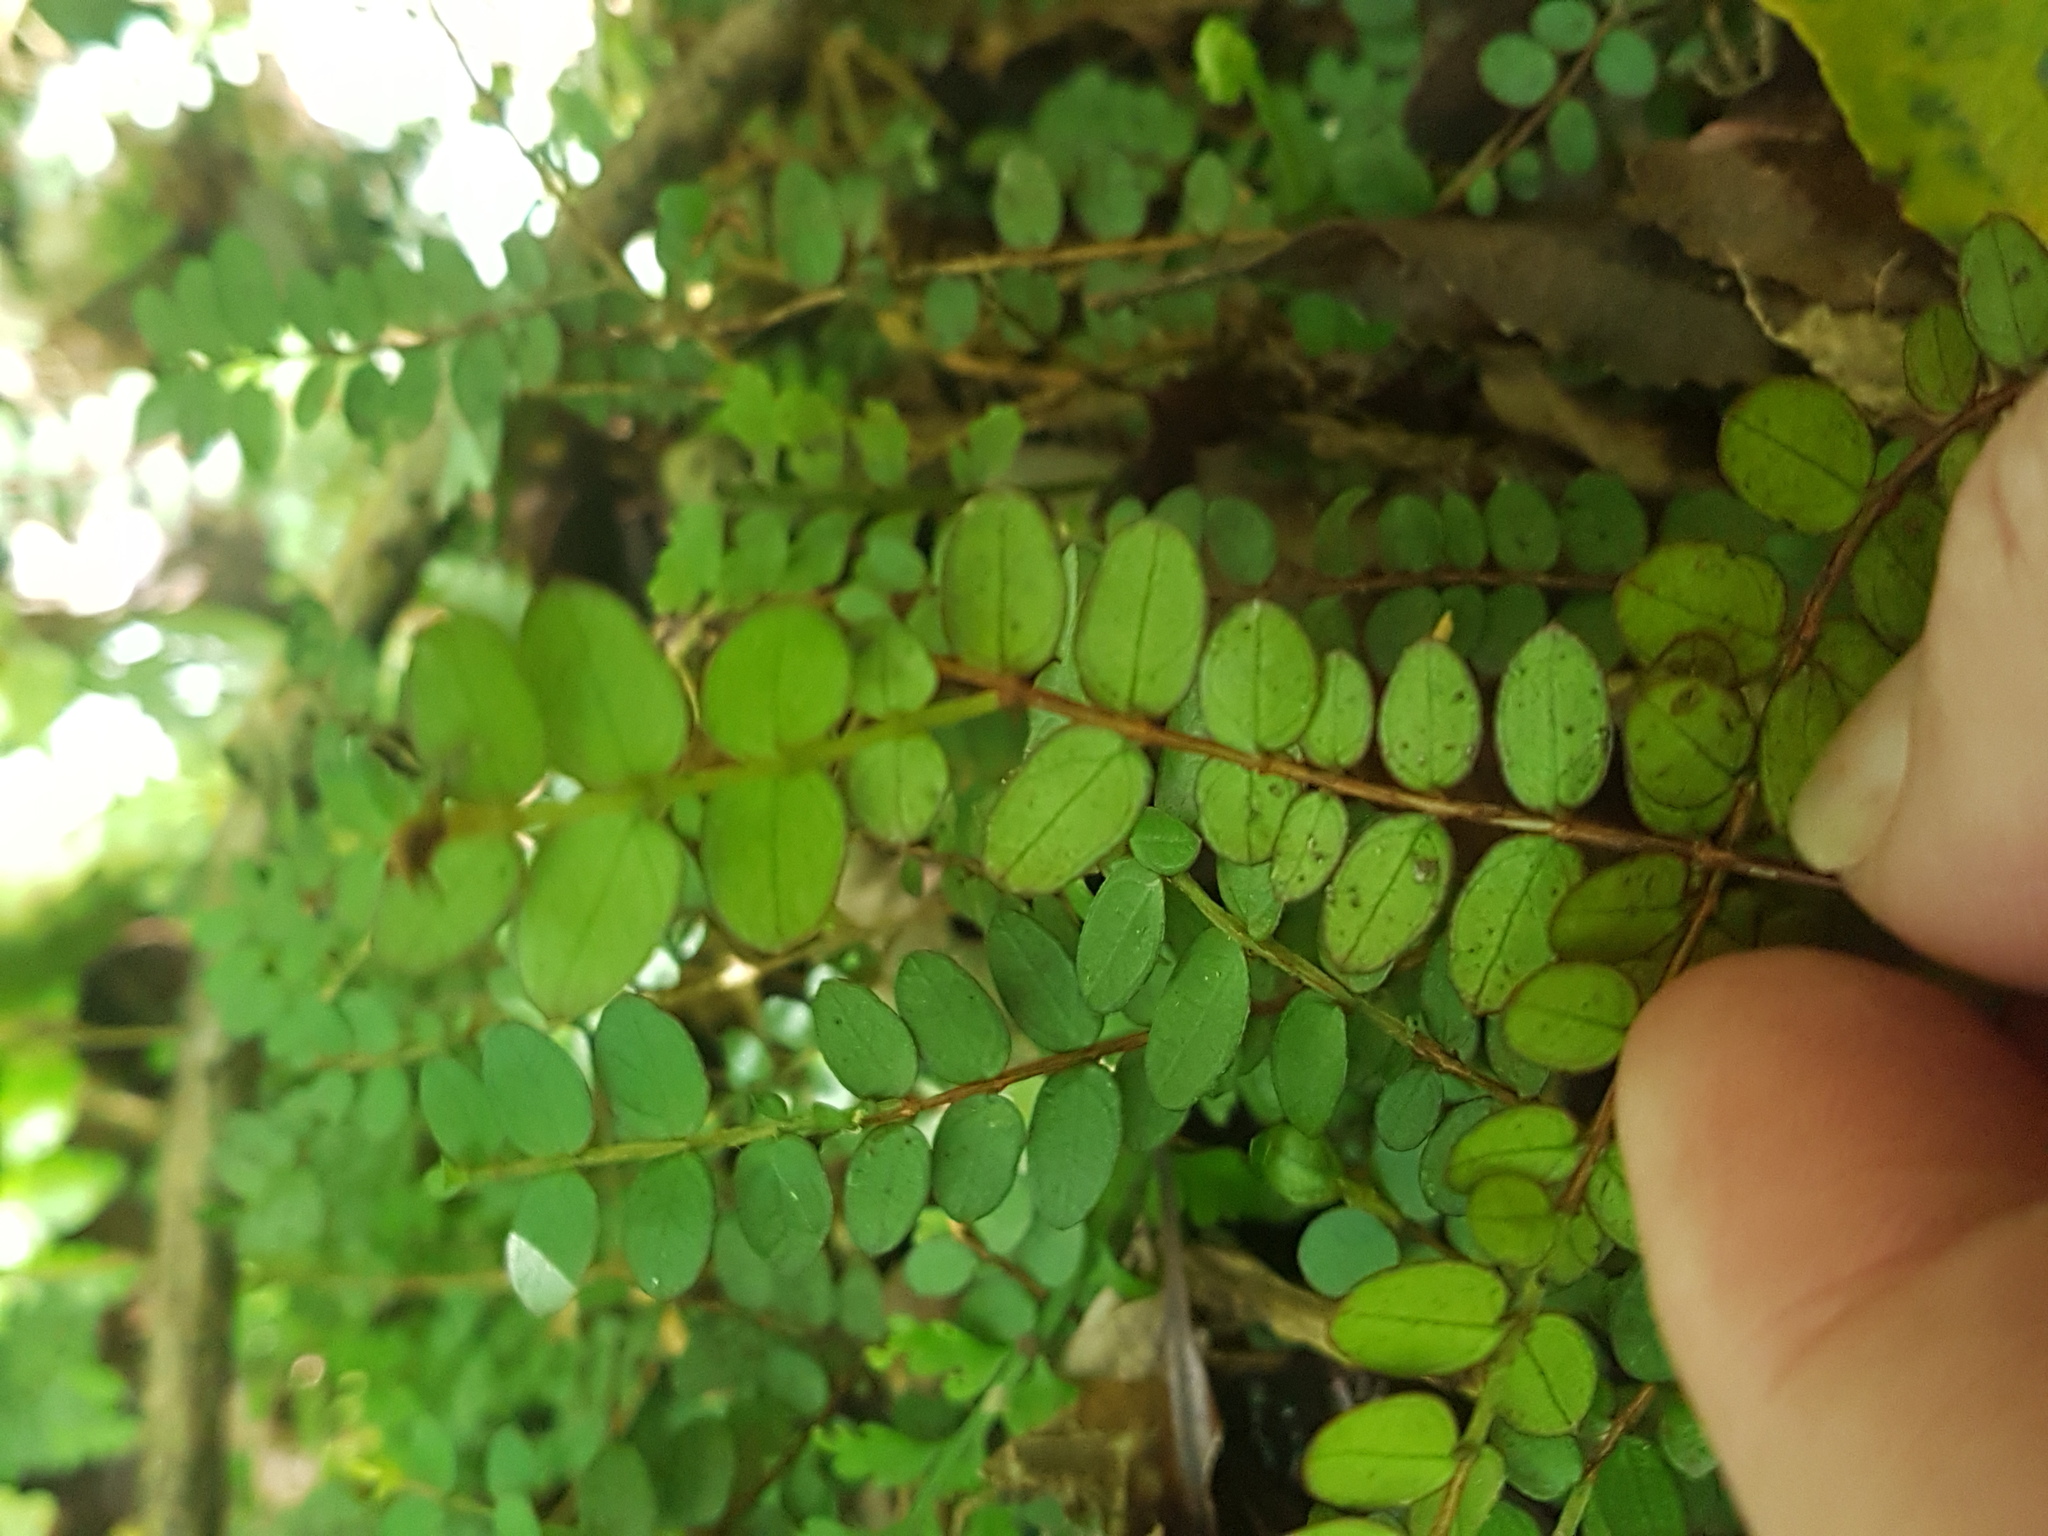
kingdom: Plantae
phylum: Tracheophyta
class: Magnoliopsida
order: Myrtales
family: Myrtaceae
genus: Metrosideros
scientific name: Metrosideros diffusa
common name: Small ratavine
